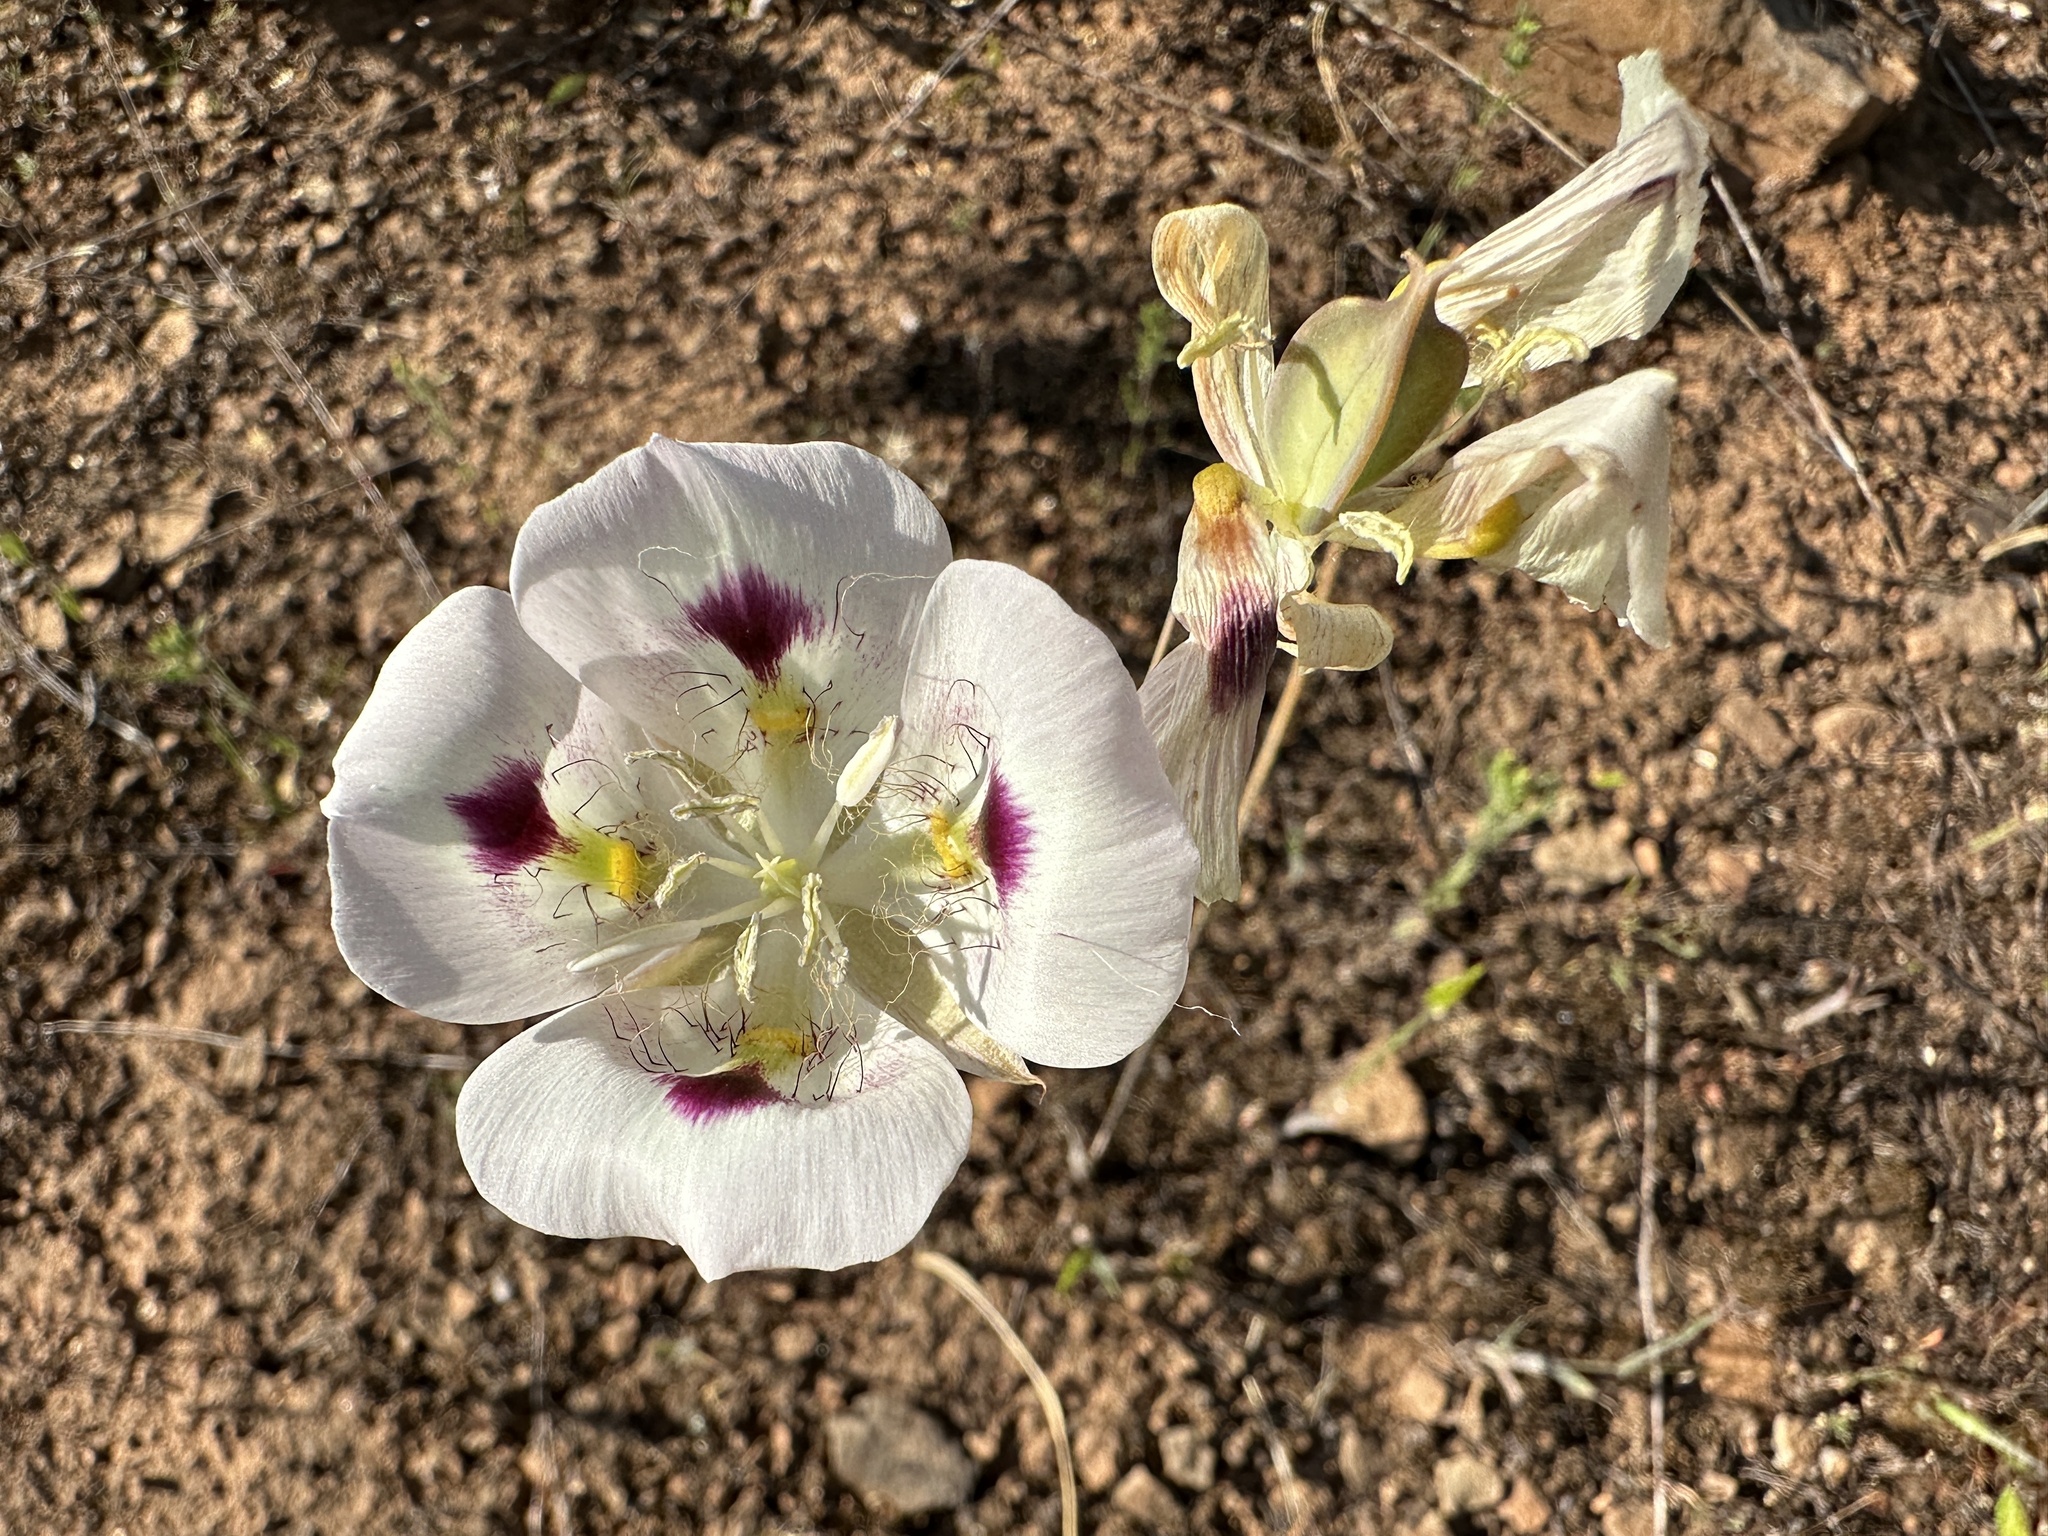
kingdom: Plantae
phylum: Tracheophyta
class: Liliopsida
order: Liliales
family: Liliaceae
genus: Calochortus
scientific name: Calochortus eurycarpus
